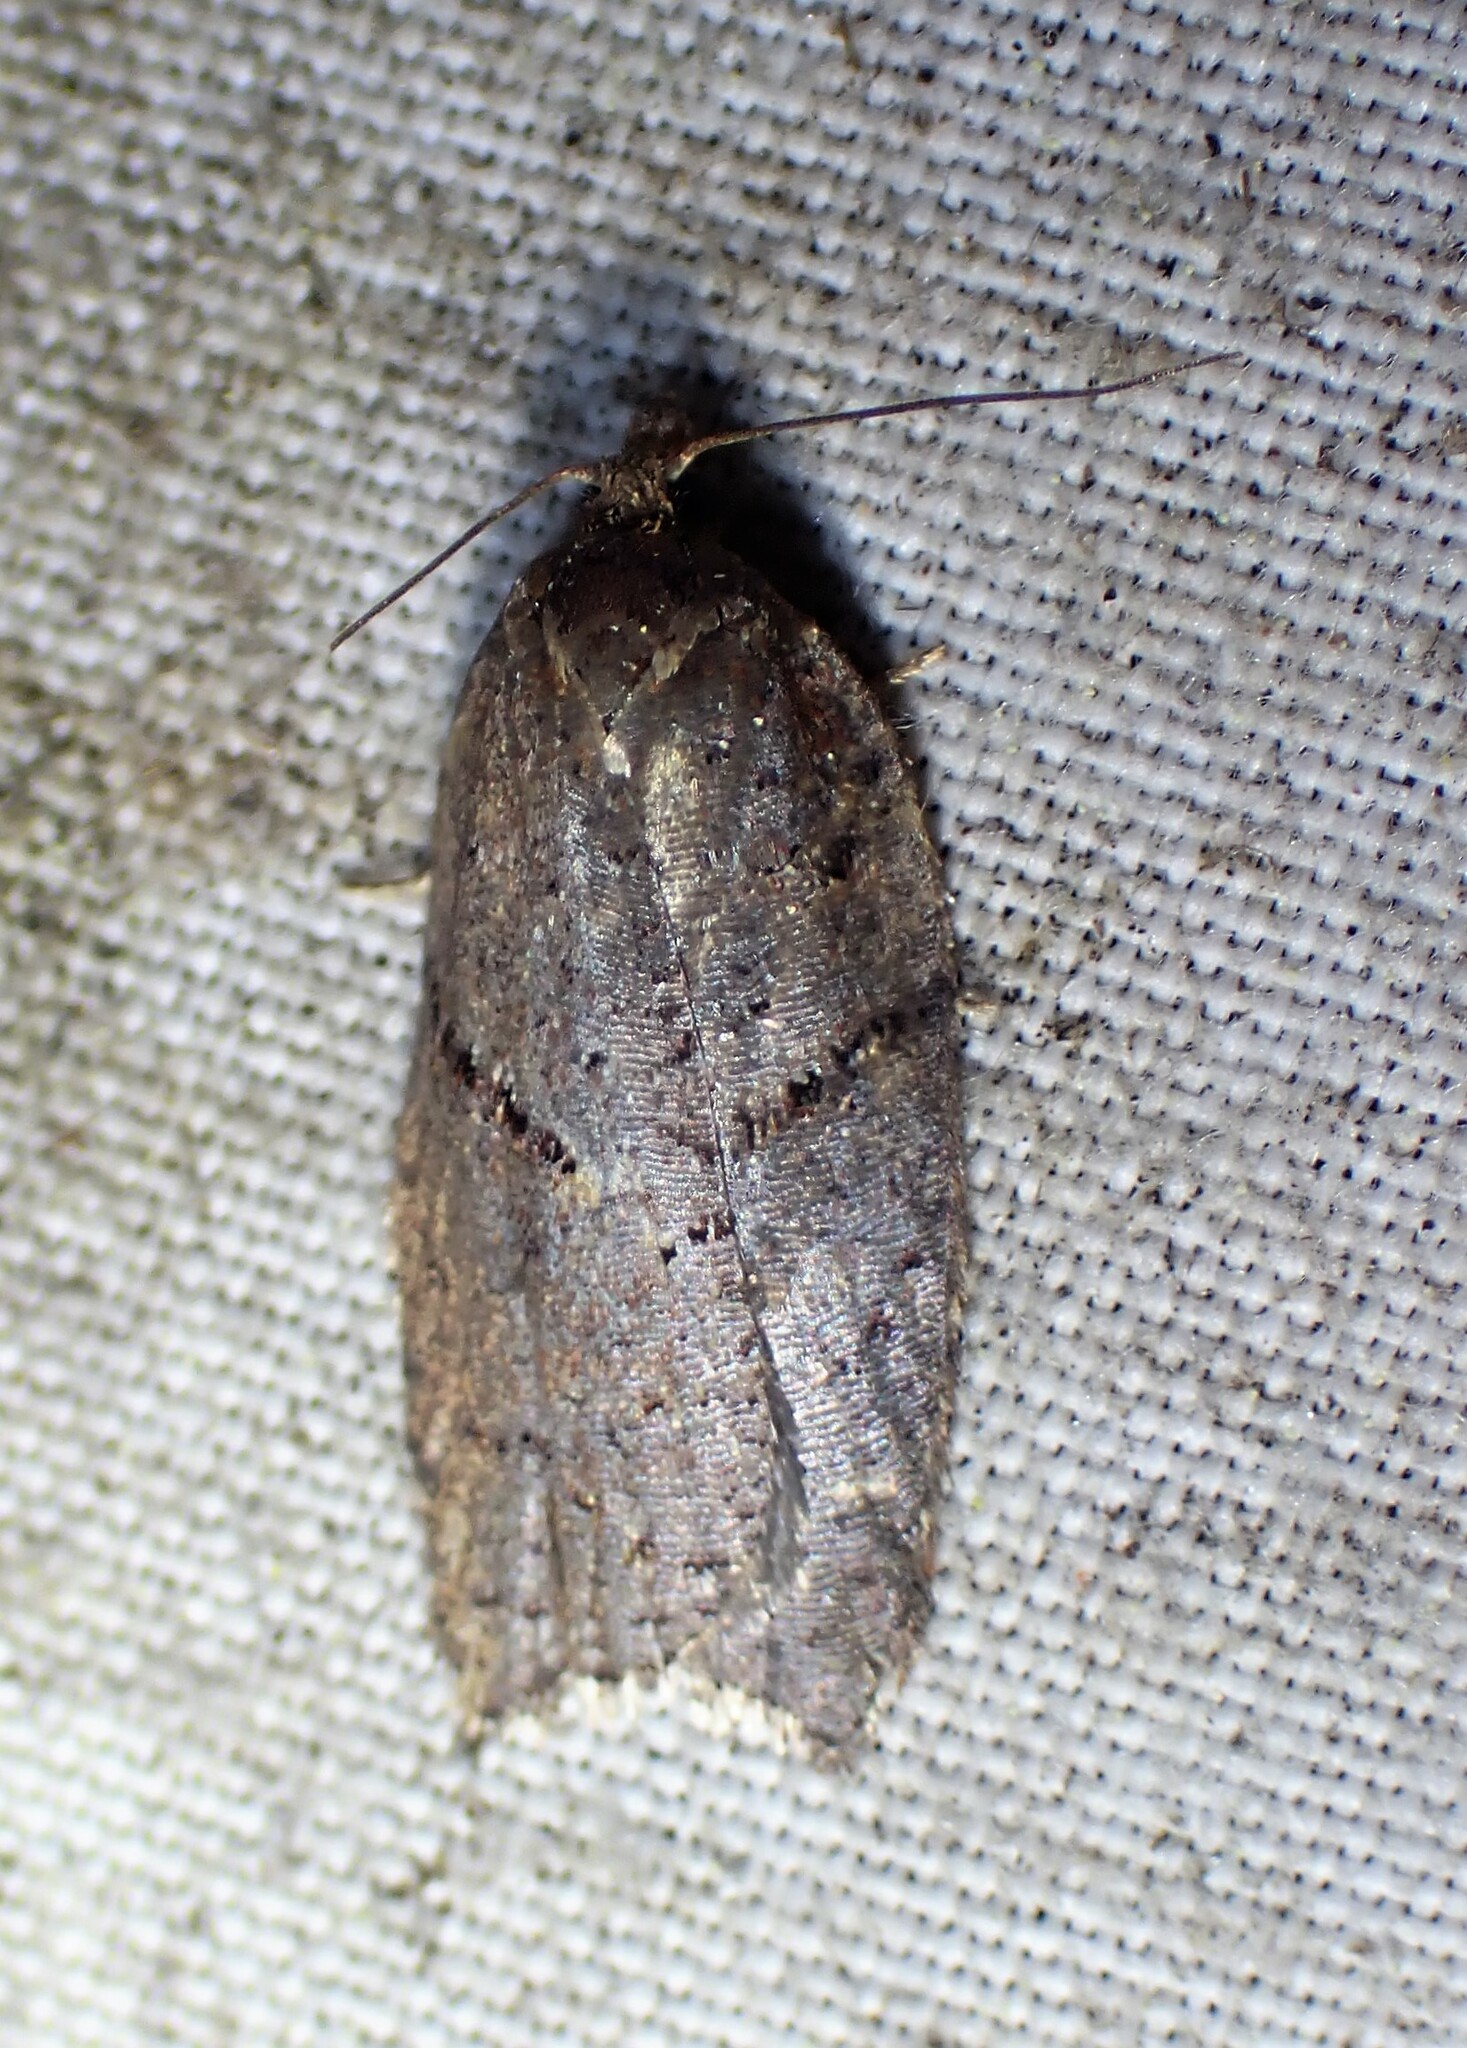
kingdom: Animalia
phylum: Arthropoda
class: Insecta
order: Lepidoptera
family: Tortricidae
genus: Acleris
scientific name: Acleris maccana
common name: Marbled button
